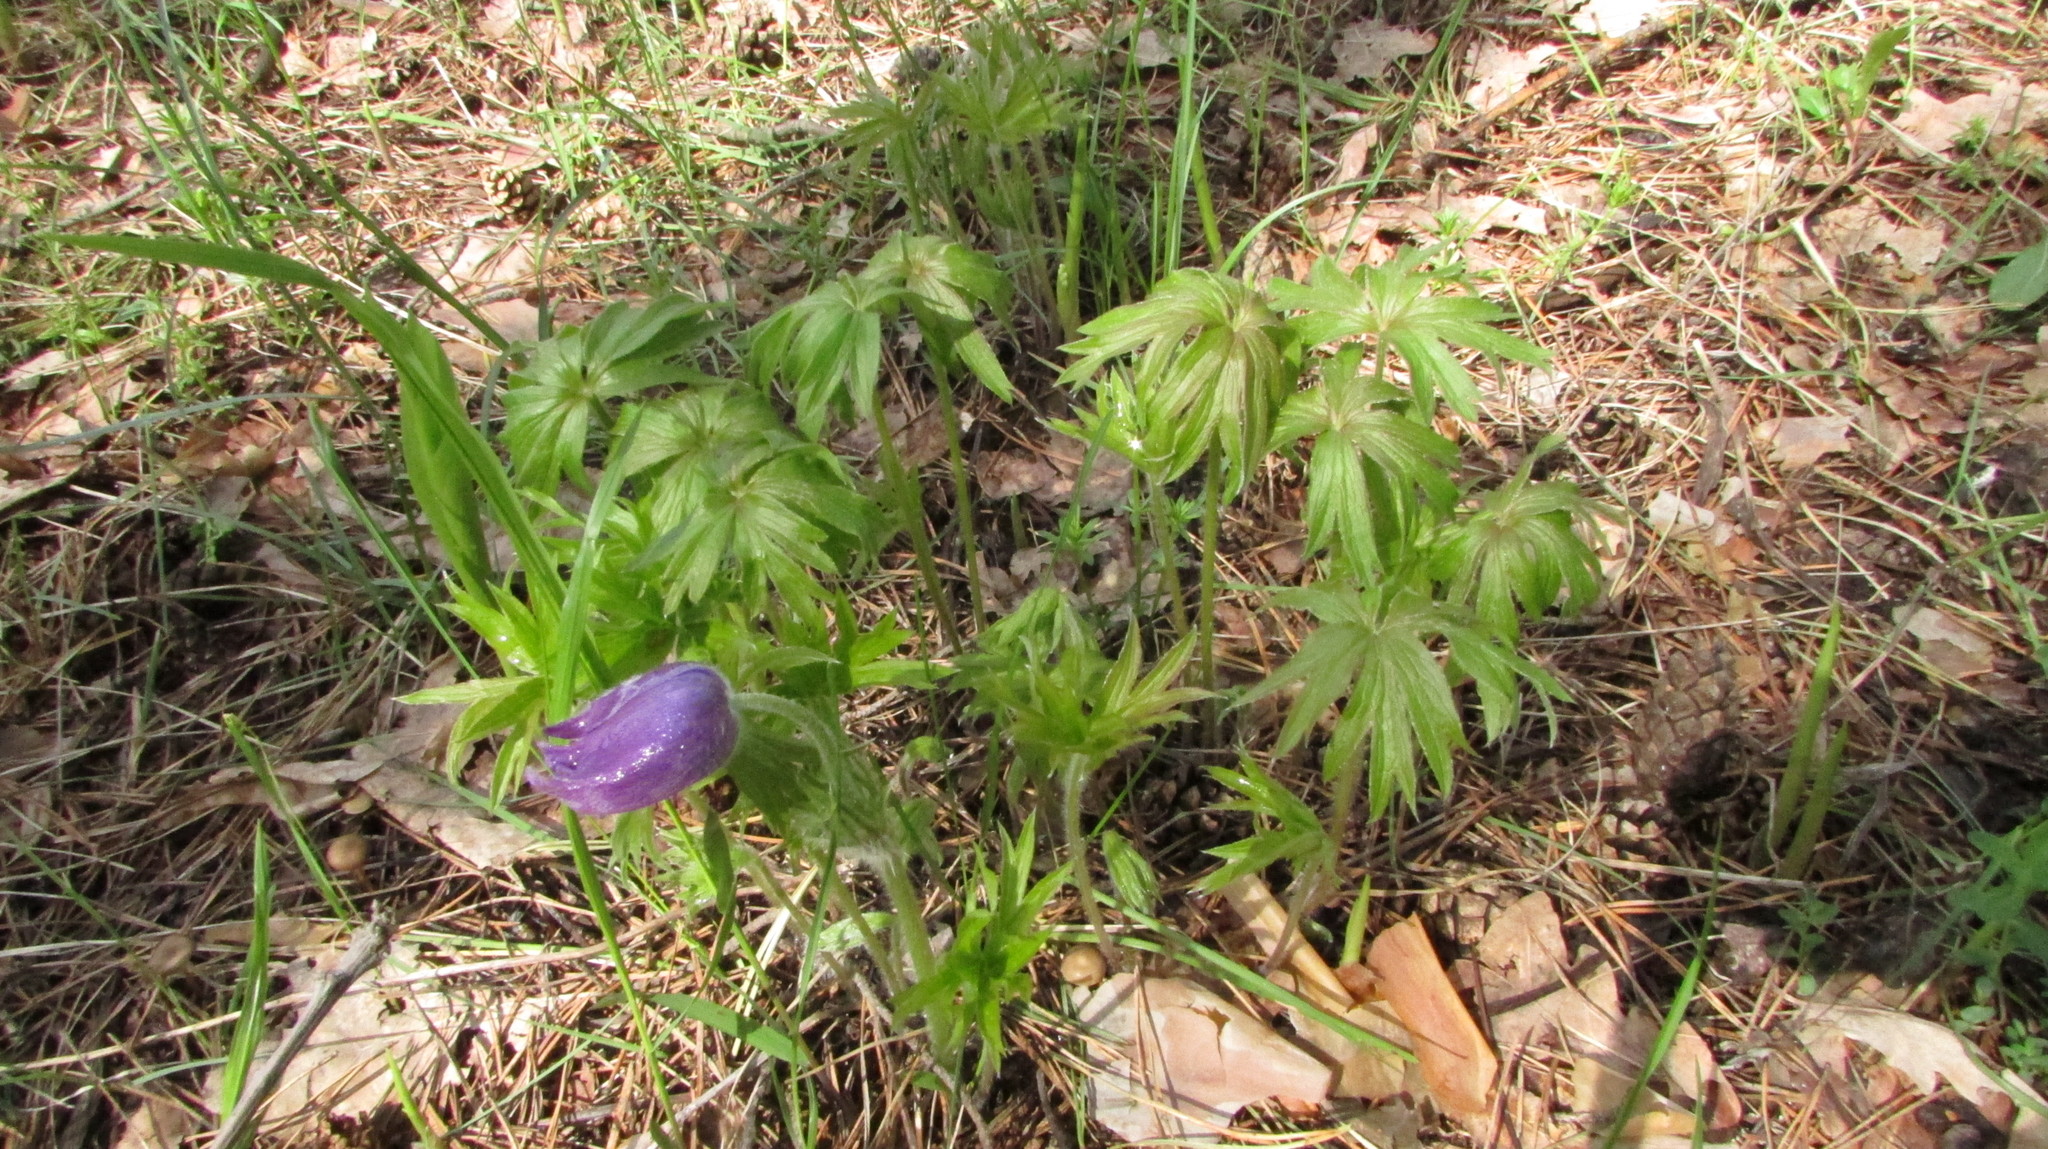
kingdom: Plantae
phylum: Tracheophyta
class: Magnoliopsida
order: Ranunculales
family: Ranunculaceae
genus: Pulsatilla
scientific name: Pulsatilla patens
